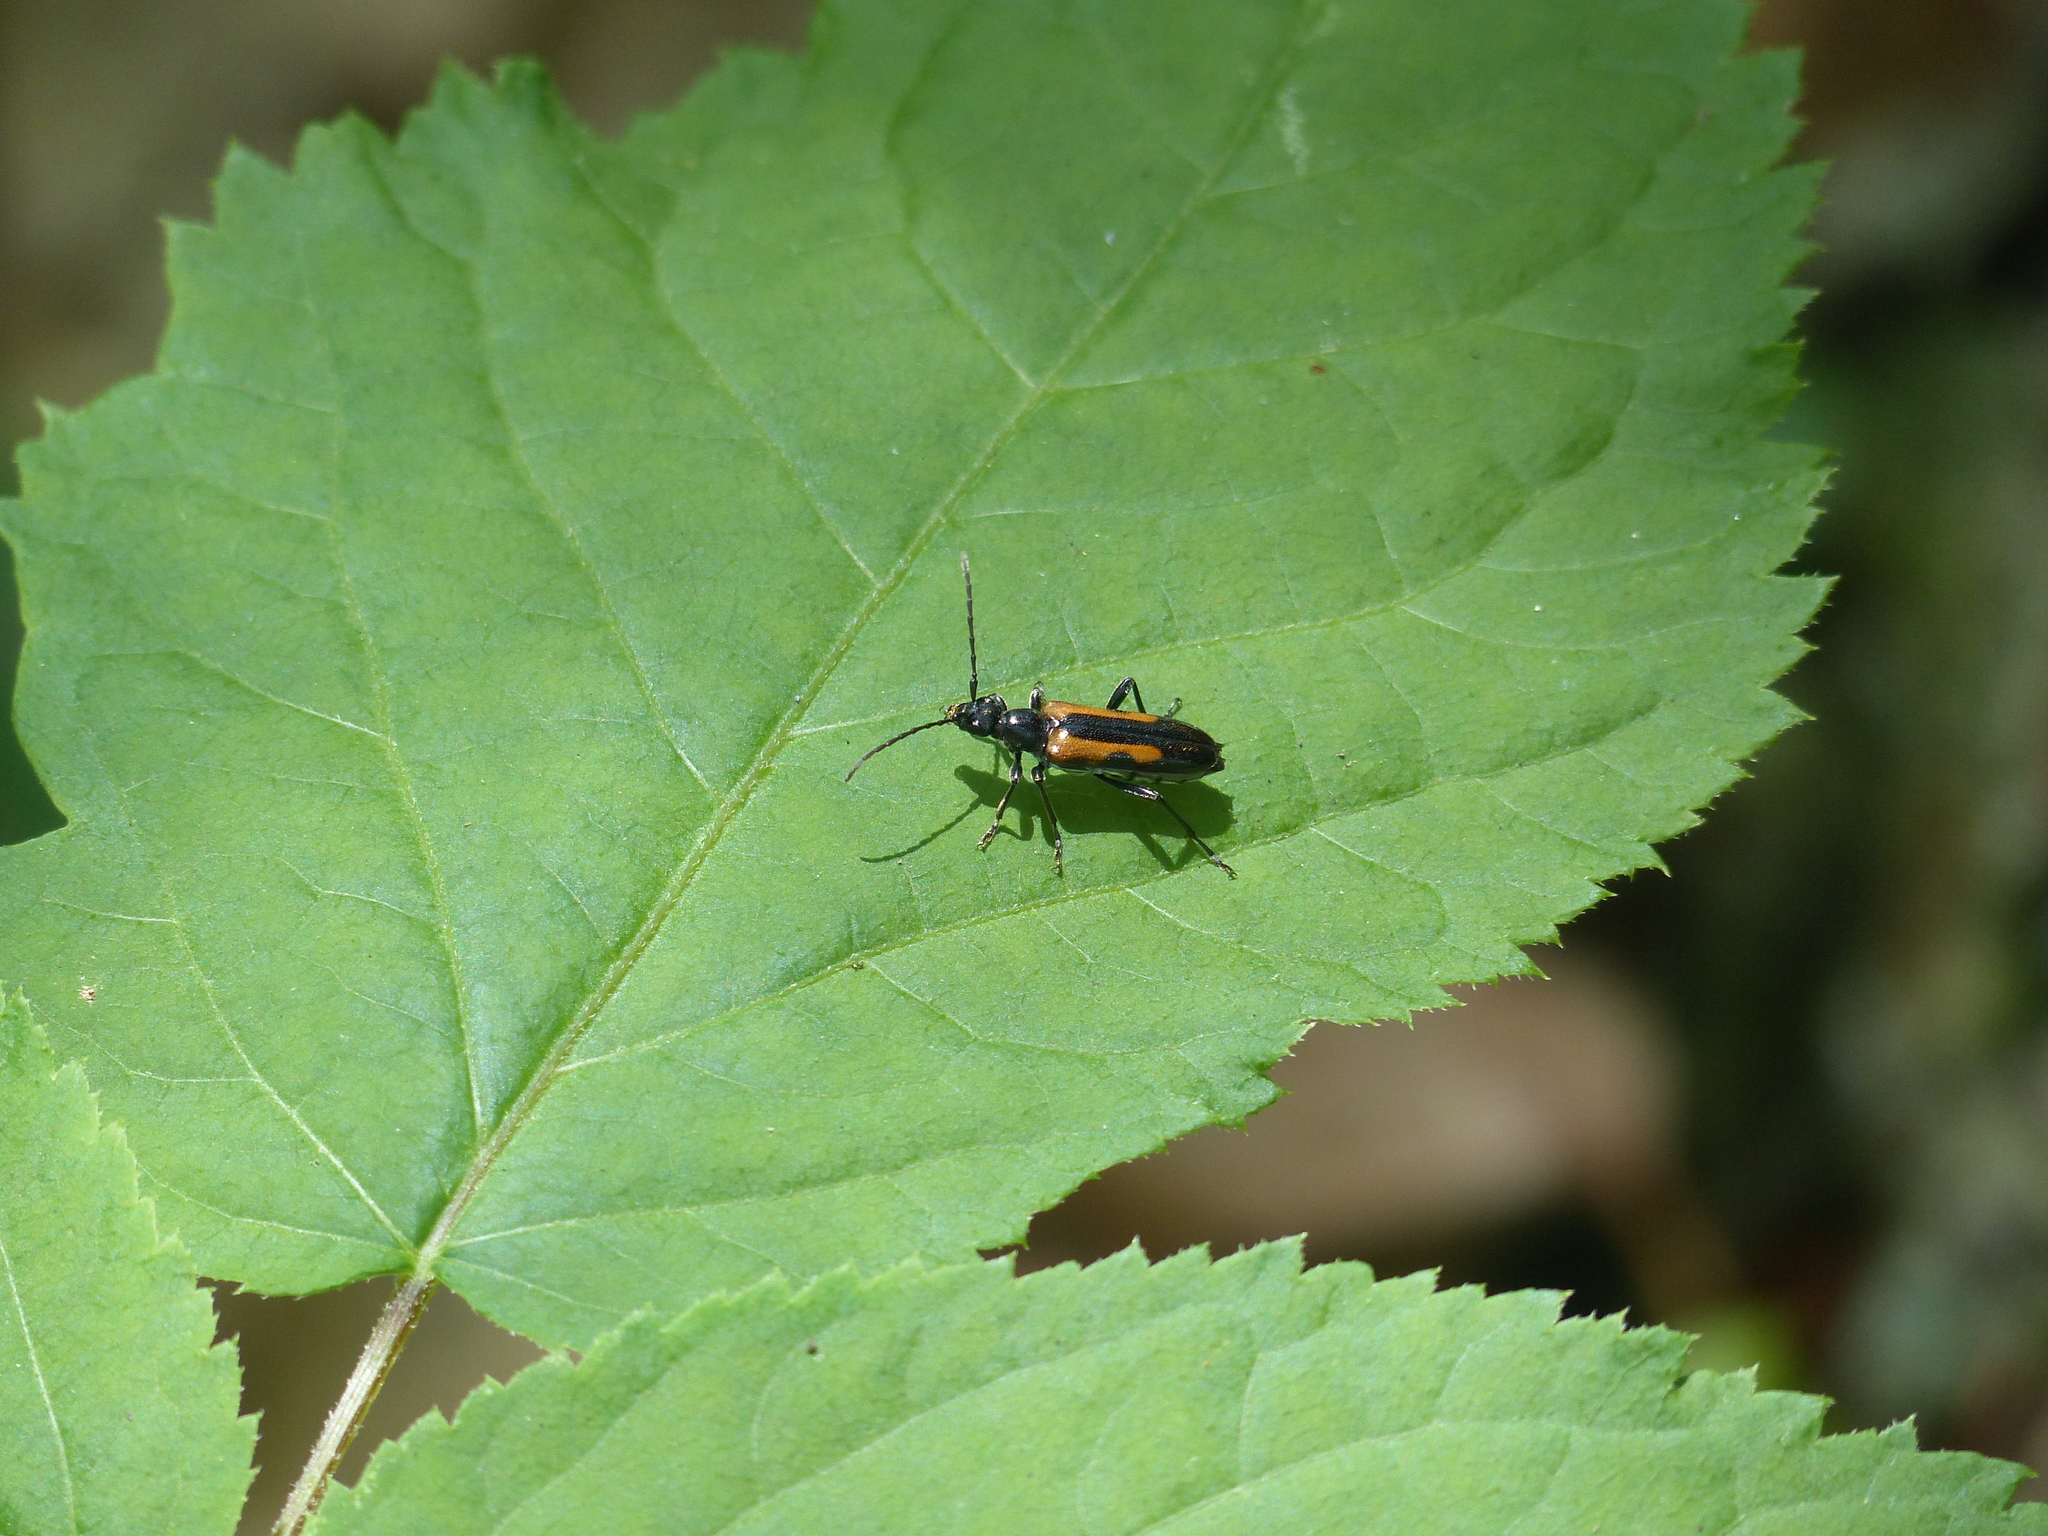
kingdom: Animalia
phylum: Arthropoda
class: Insecta
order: Coleoptera
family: Cerambycidae
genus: Strangalepta
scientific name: Strangalepta abbreviata
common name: Strangalepta flower longhorn beetle
